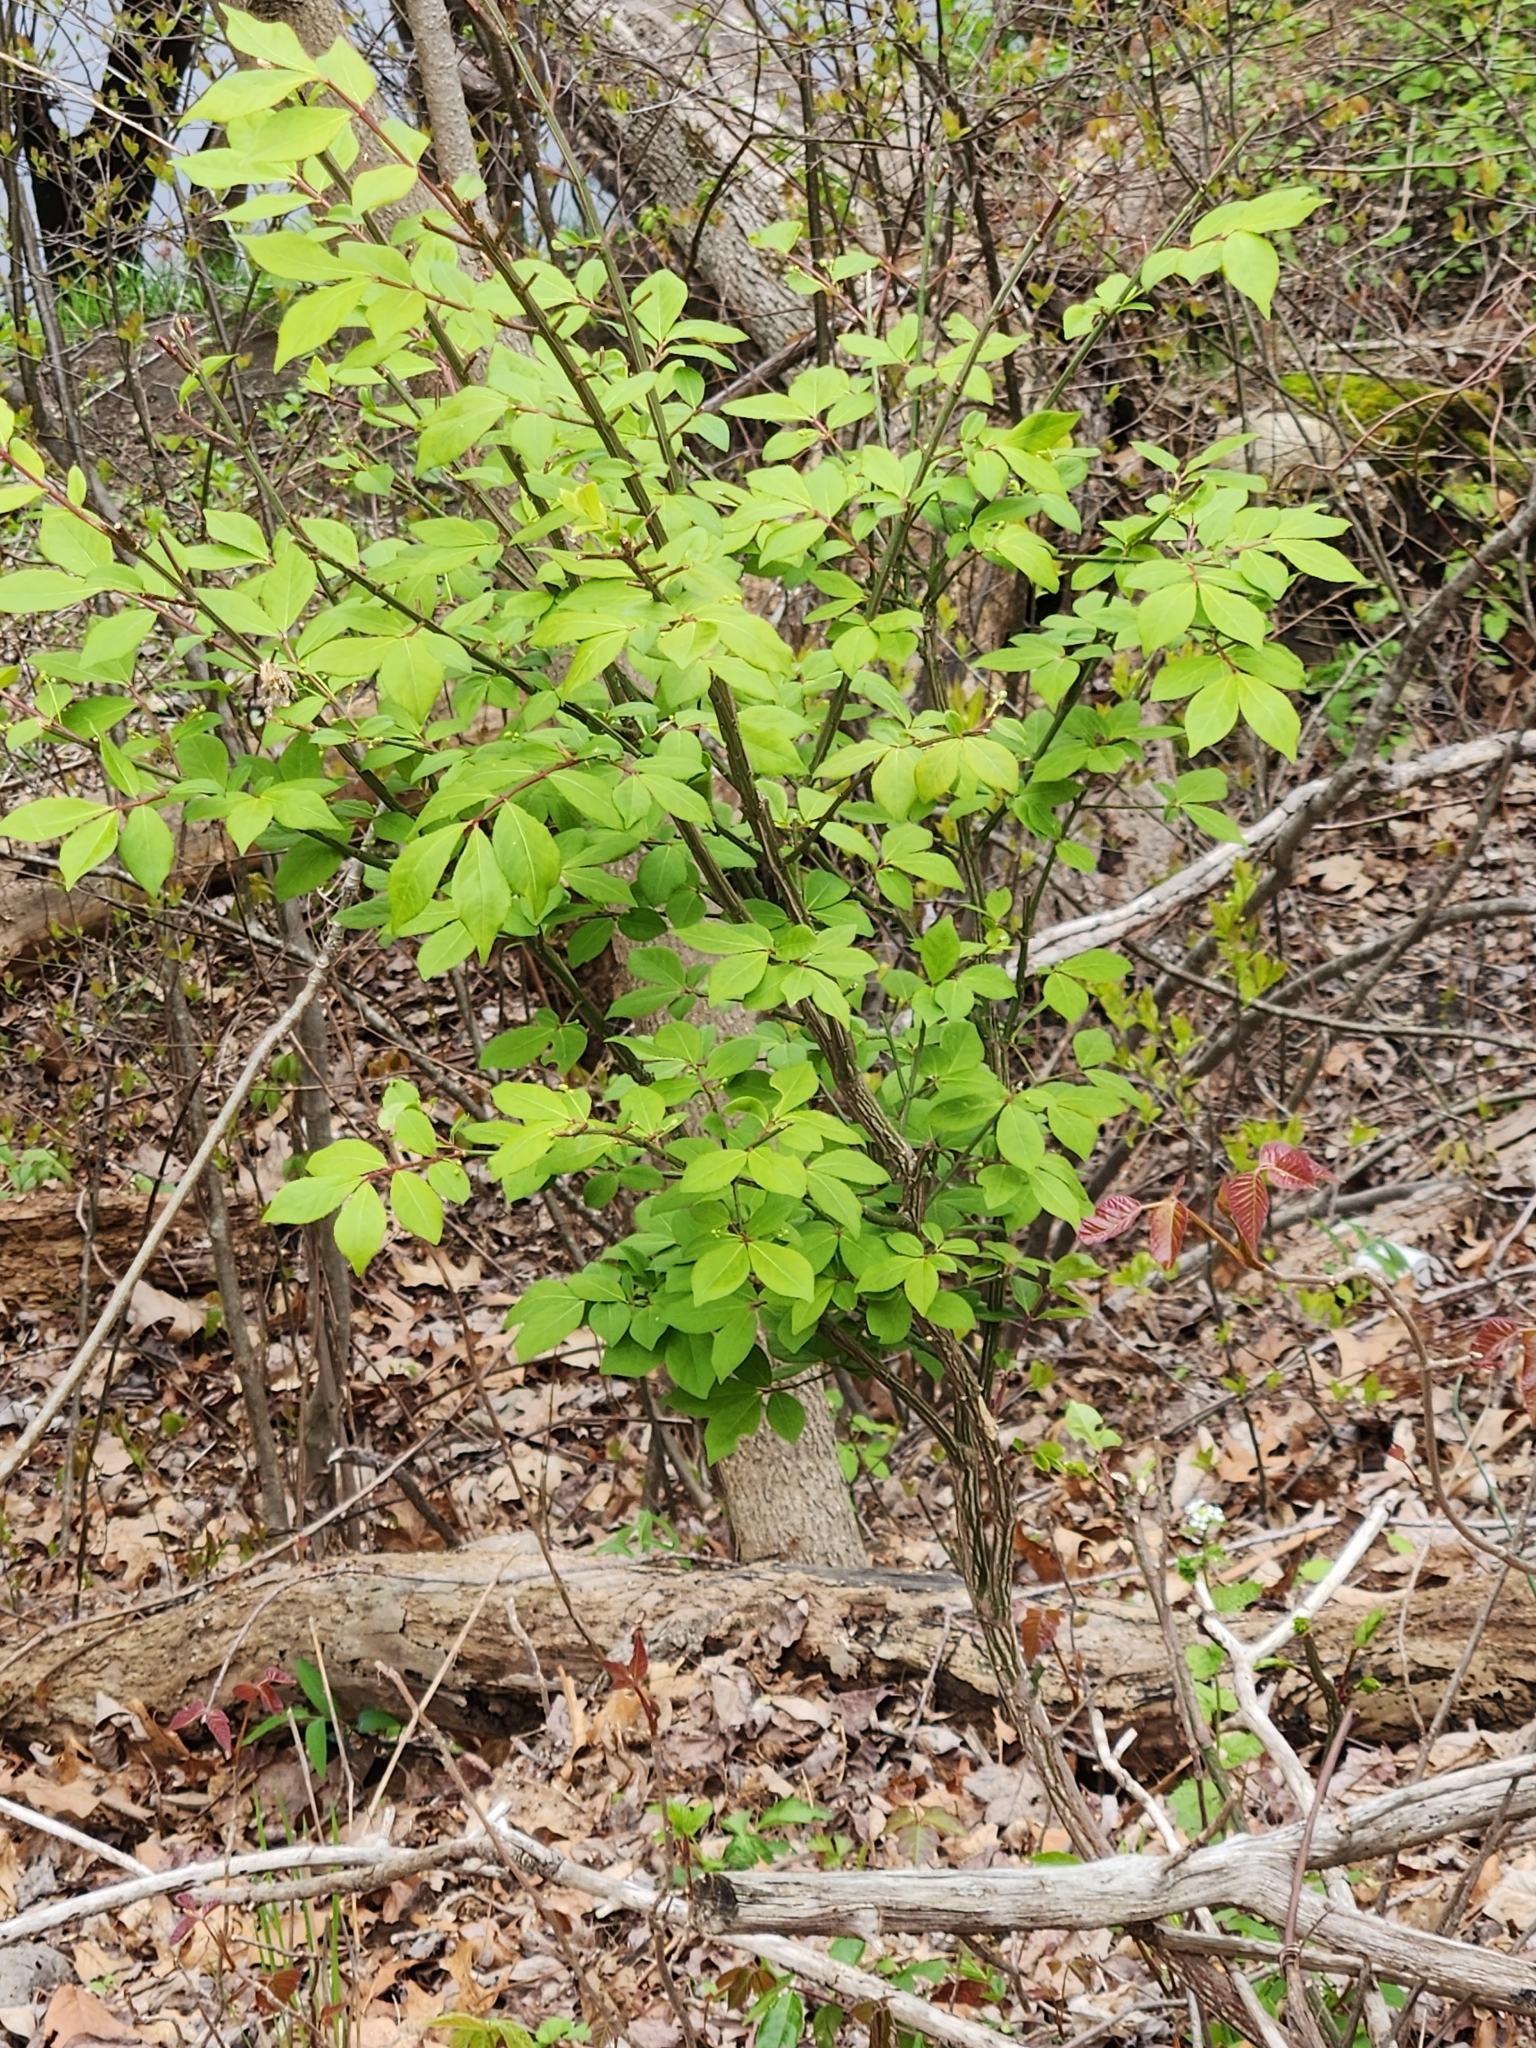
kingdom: Plantae
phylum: Tracheophyta
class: Magnoliopsida
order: Celastrales
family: Celastraceae
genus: Euonymus
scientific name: Euonymus alatus
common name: Winged euonymus
